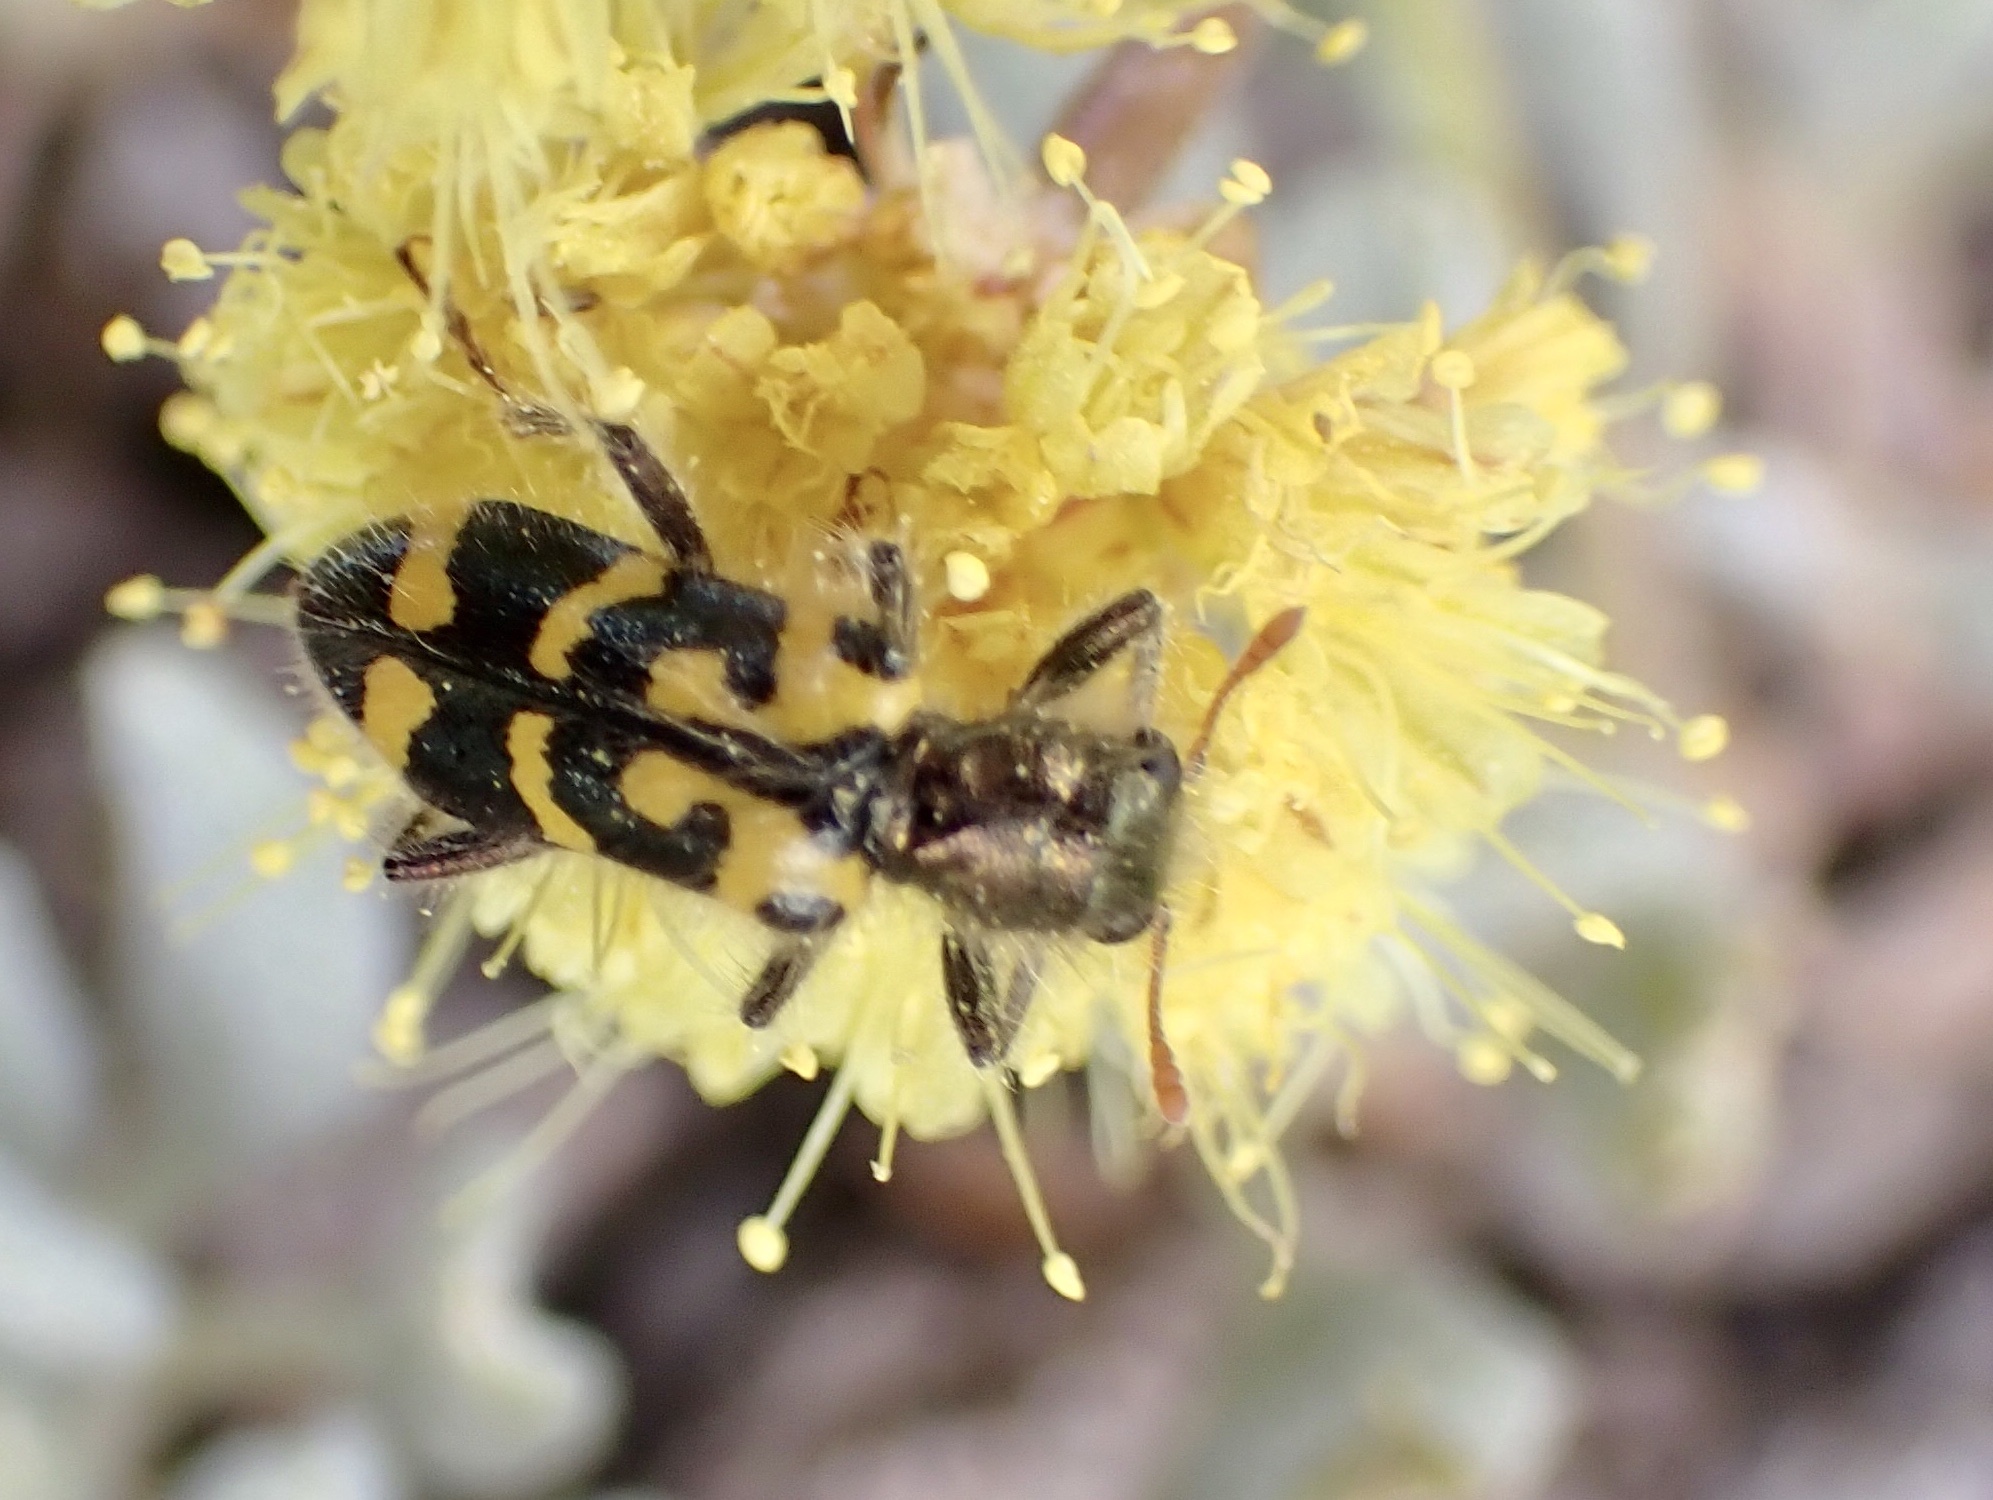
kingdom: Animalia
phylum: Arthropoda
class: Insecta
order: Coleoptera
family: Cleridae
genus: Trichodes
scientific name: Trichodes ornatus
